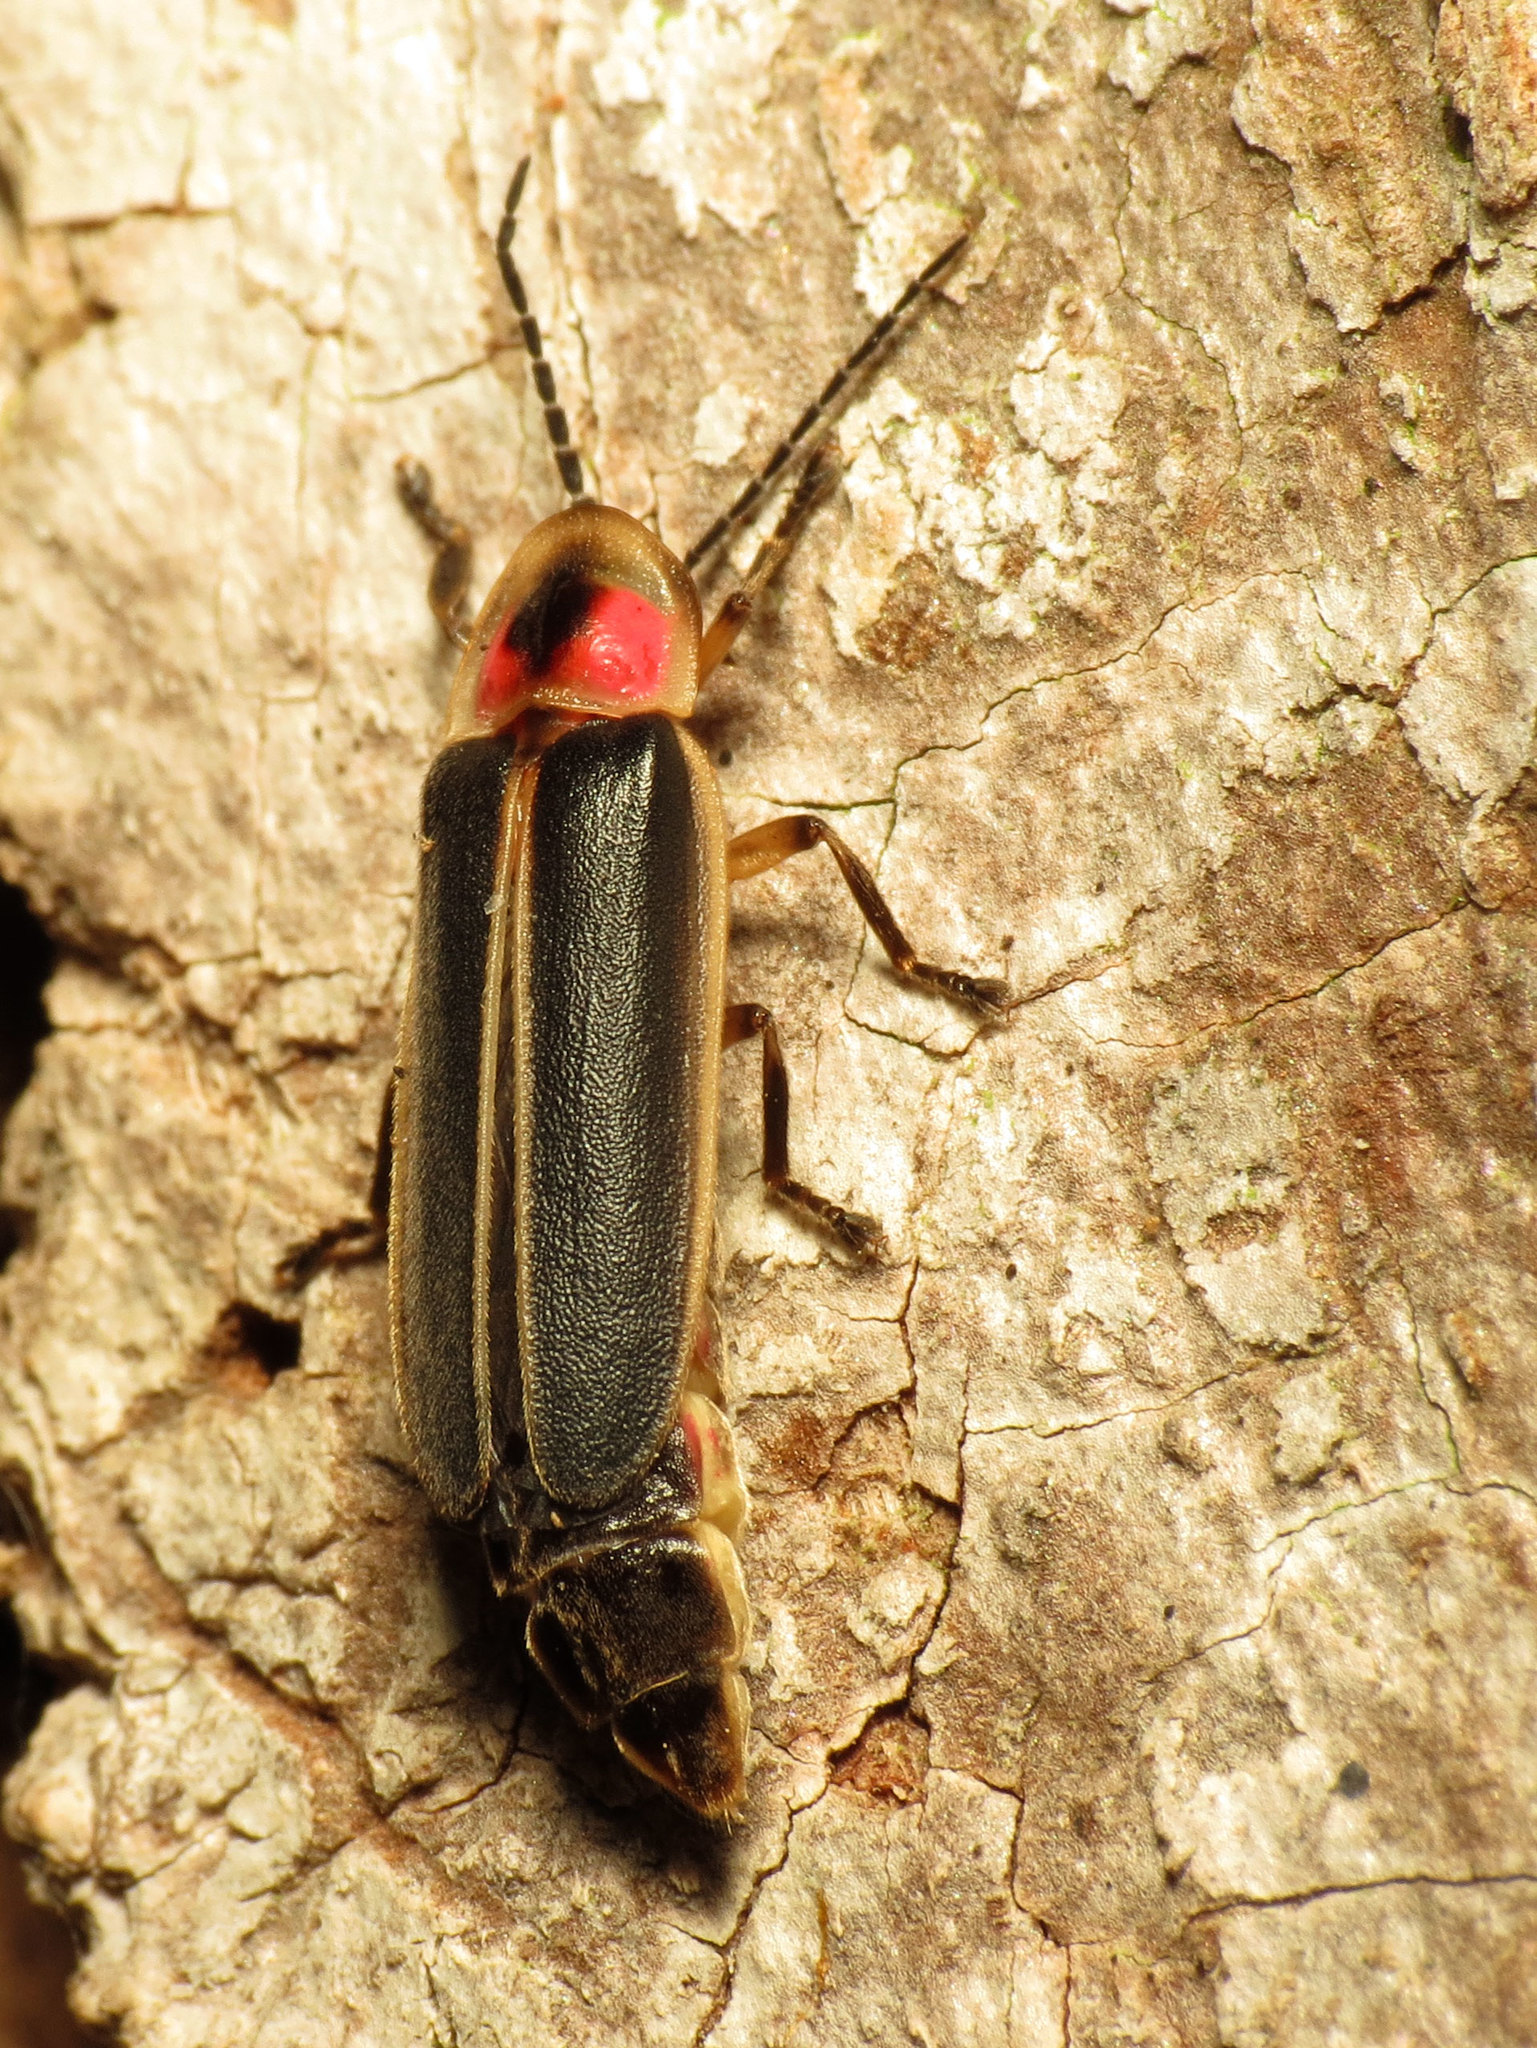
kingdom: Animalia
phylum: Arthropoda
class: Insecta
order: Coleoptera
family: Lampyridae
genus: Photinus
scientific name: Photinus pyralis
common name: Big dipper firefly
